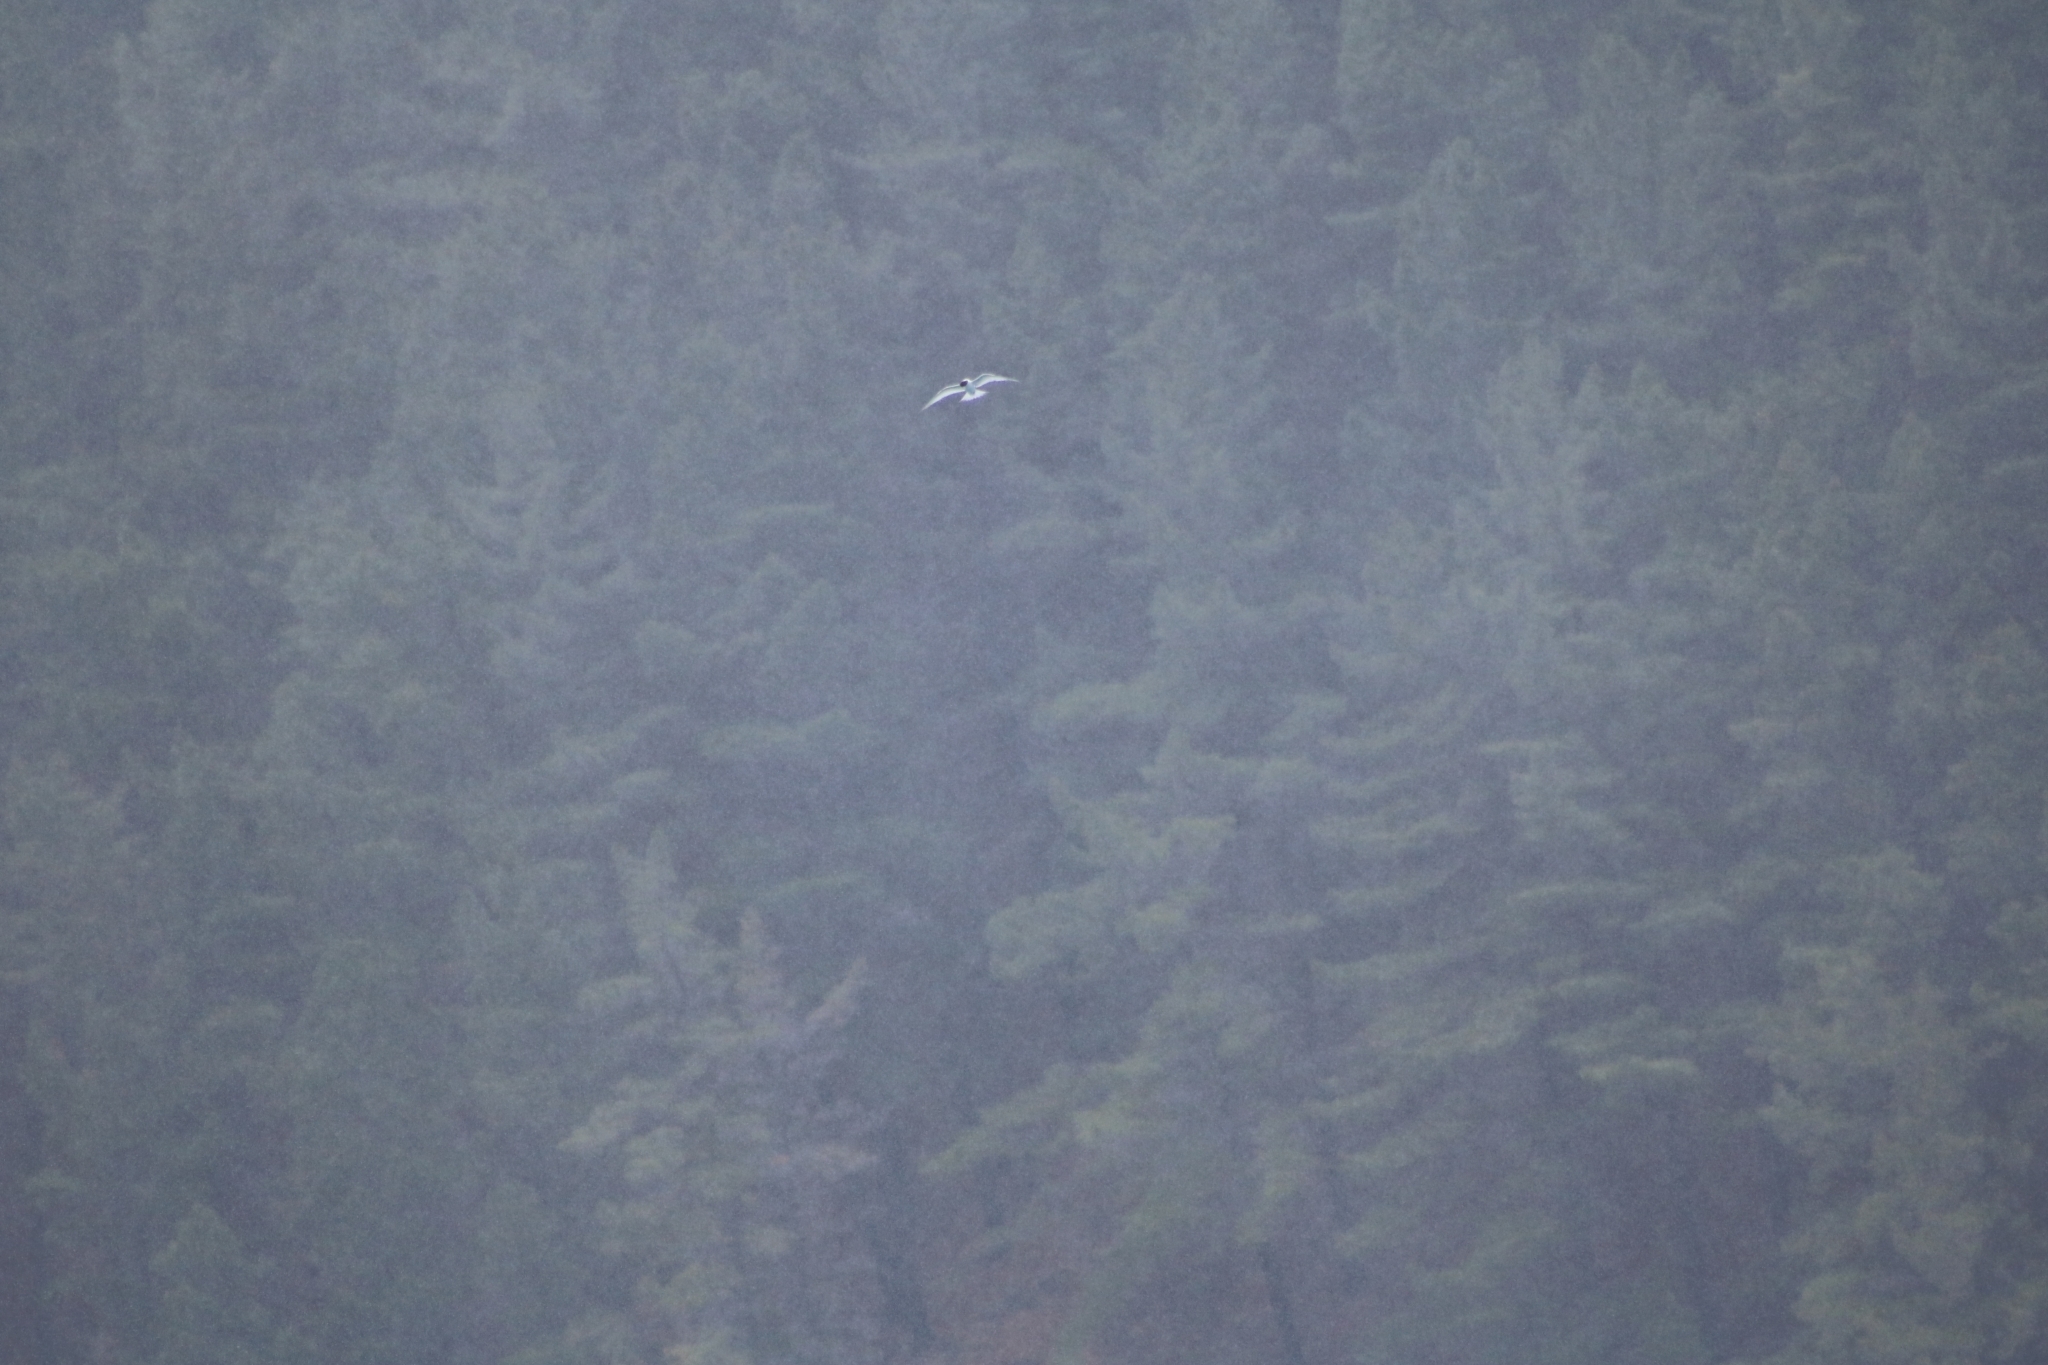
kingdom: Animalia
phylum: Chordata
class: Aves
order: Charadriiformes
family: Laridae
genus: Sterna
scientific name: Sterna striata
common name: White-fronted tern
